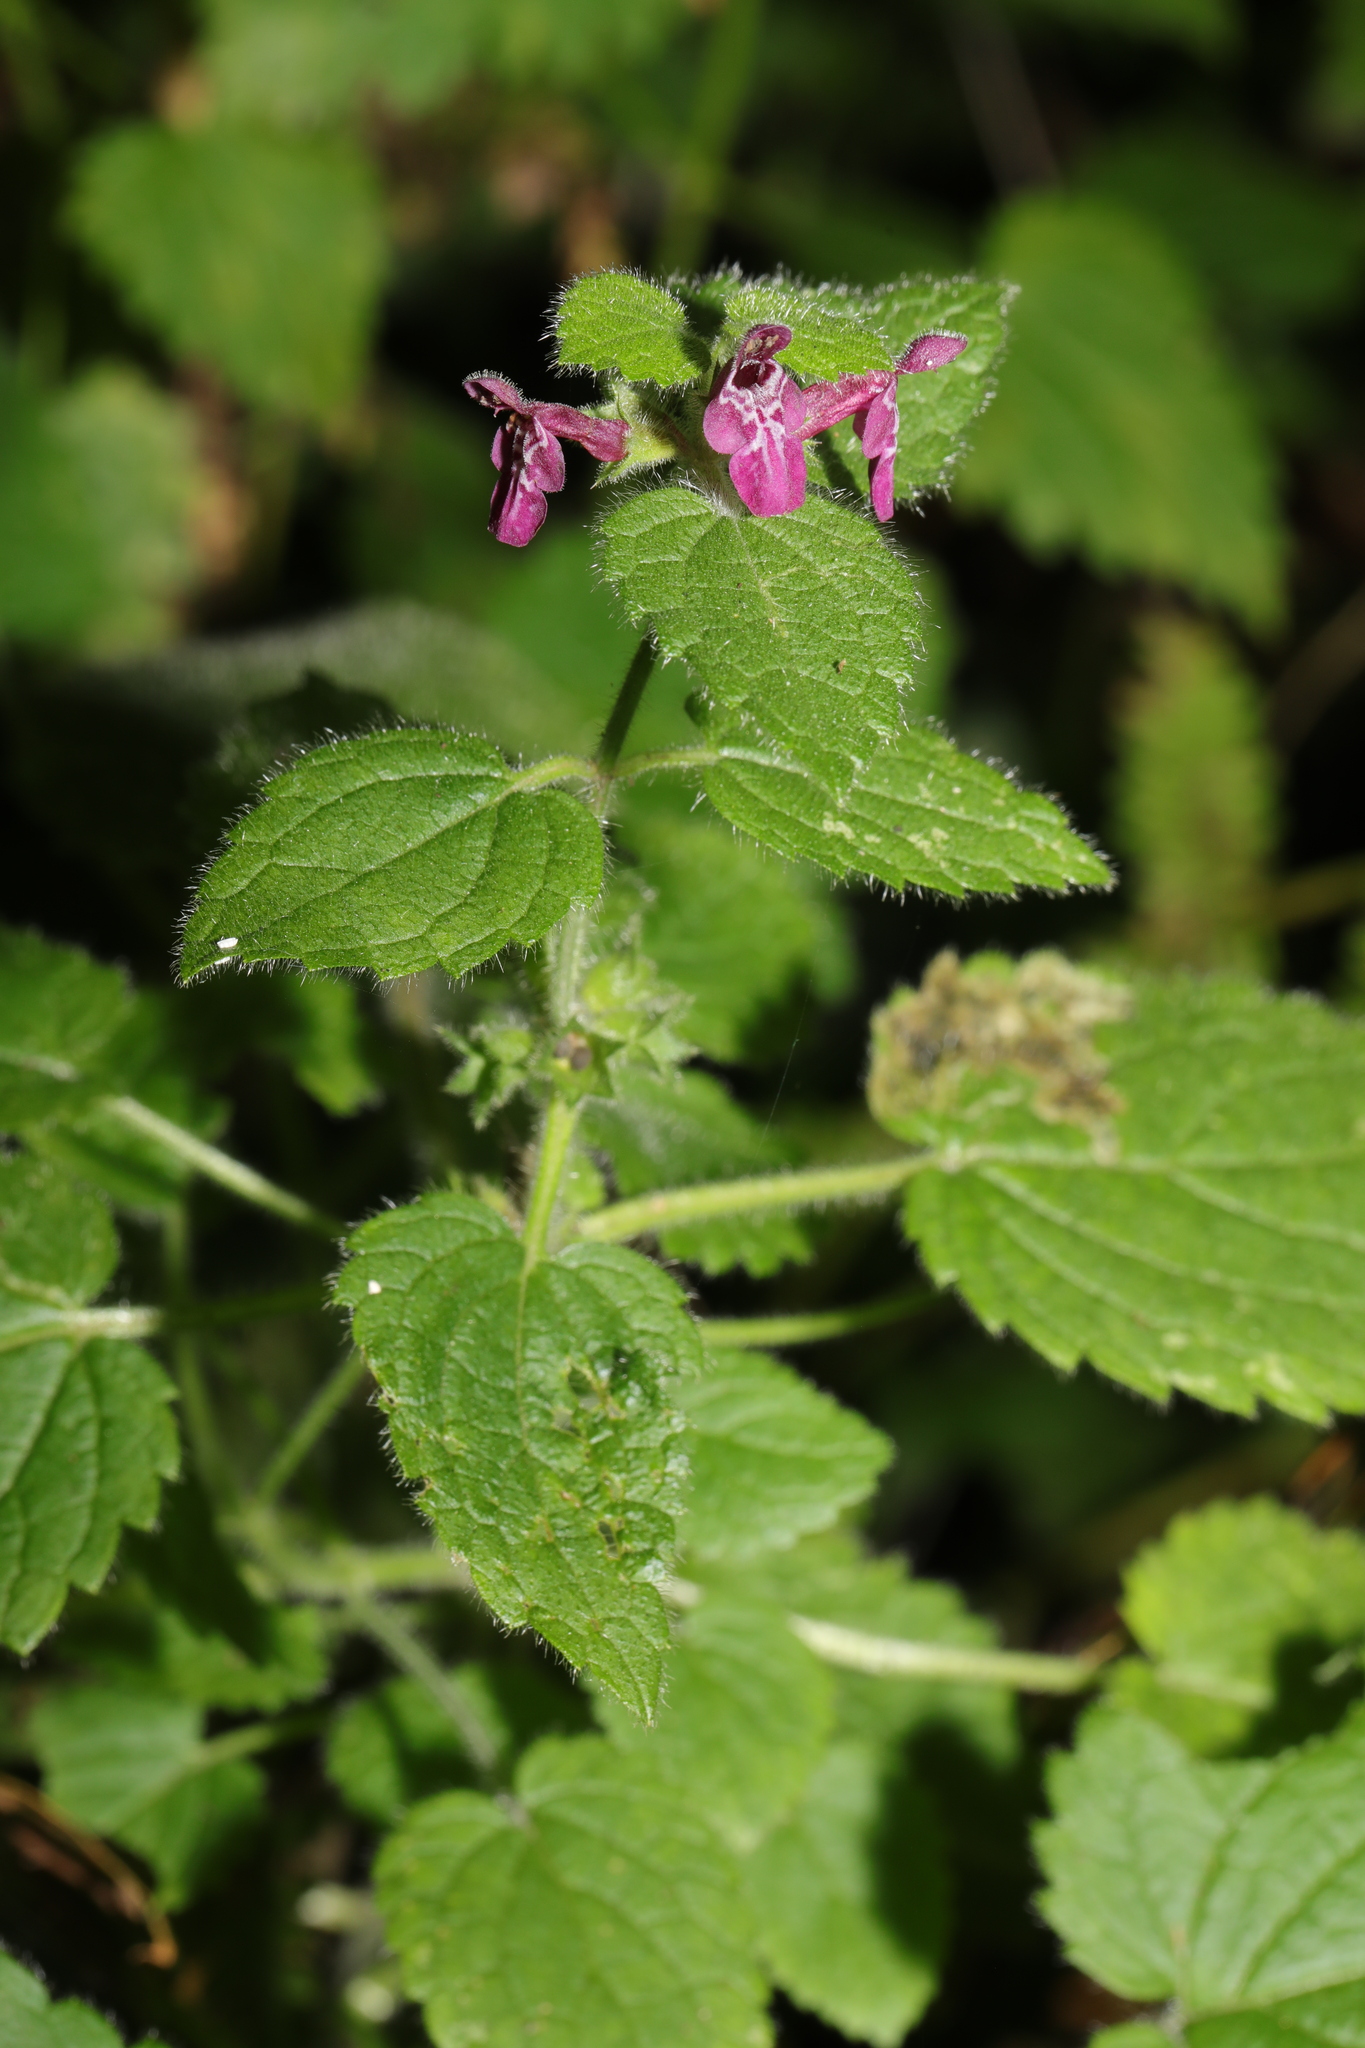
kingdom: Plantae
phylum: Tracheophyta
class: Magnoliopsida
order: Lamiales
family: Lamiaceae
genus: Stachys
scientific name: Stachys sylvatica
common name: Hedge woundwort
